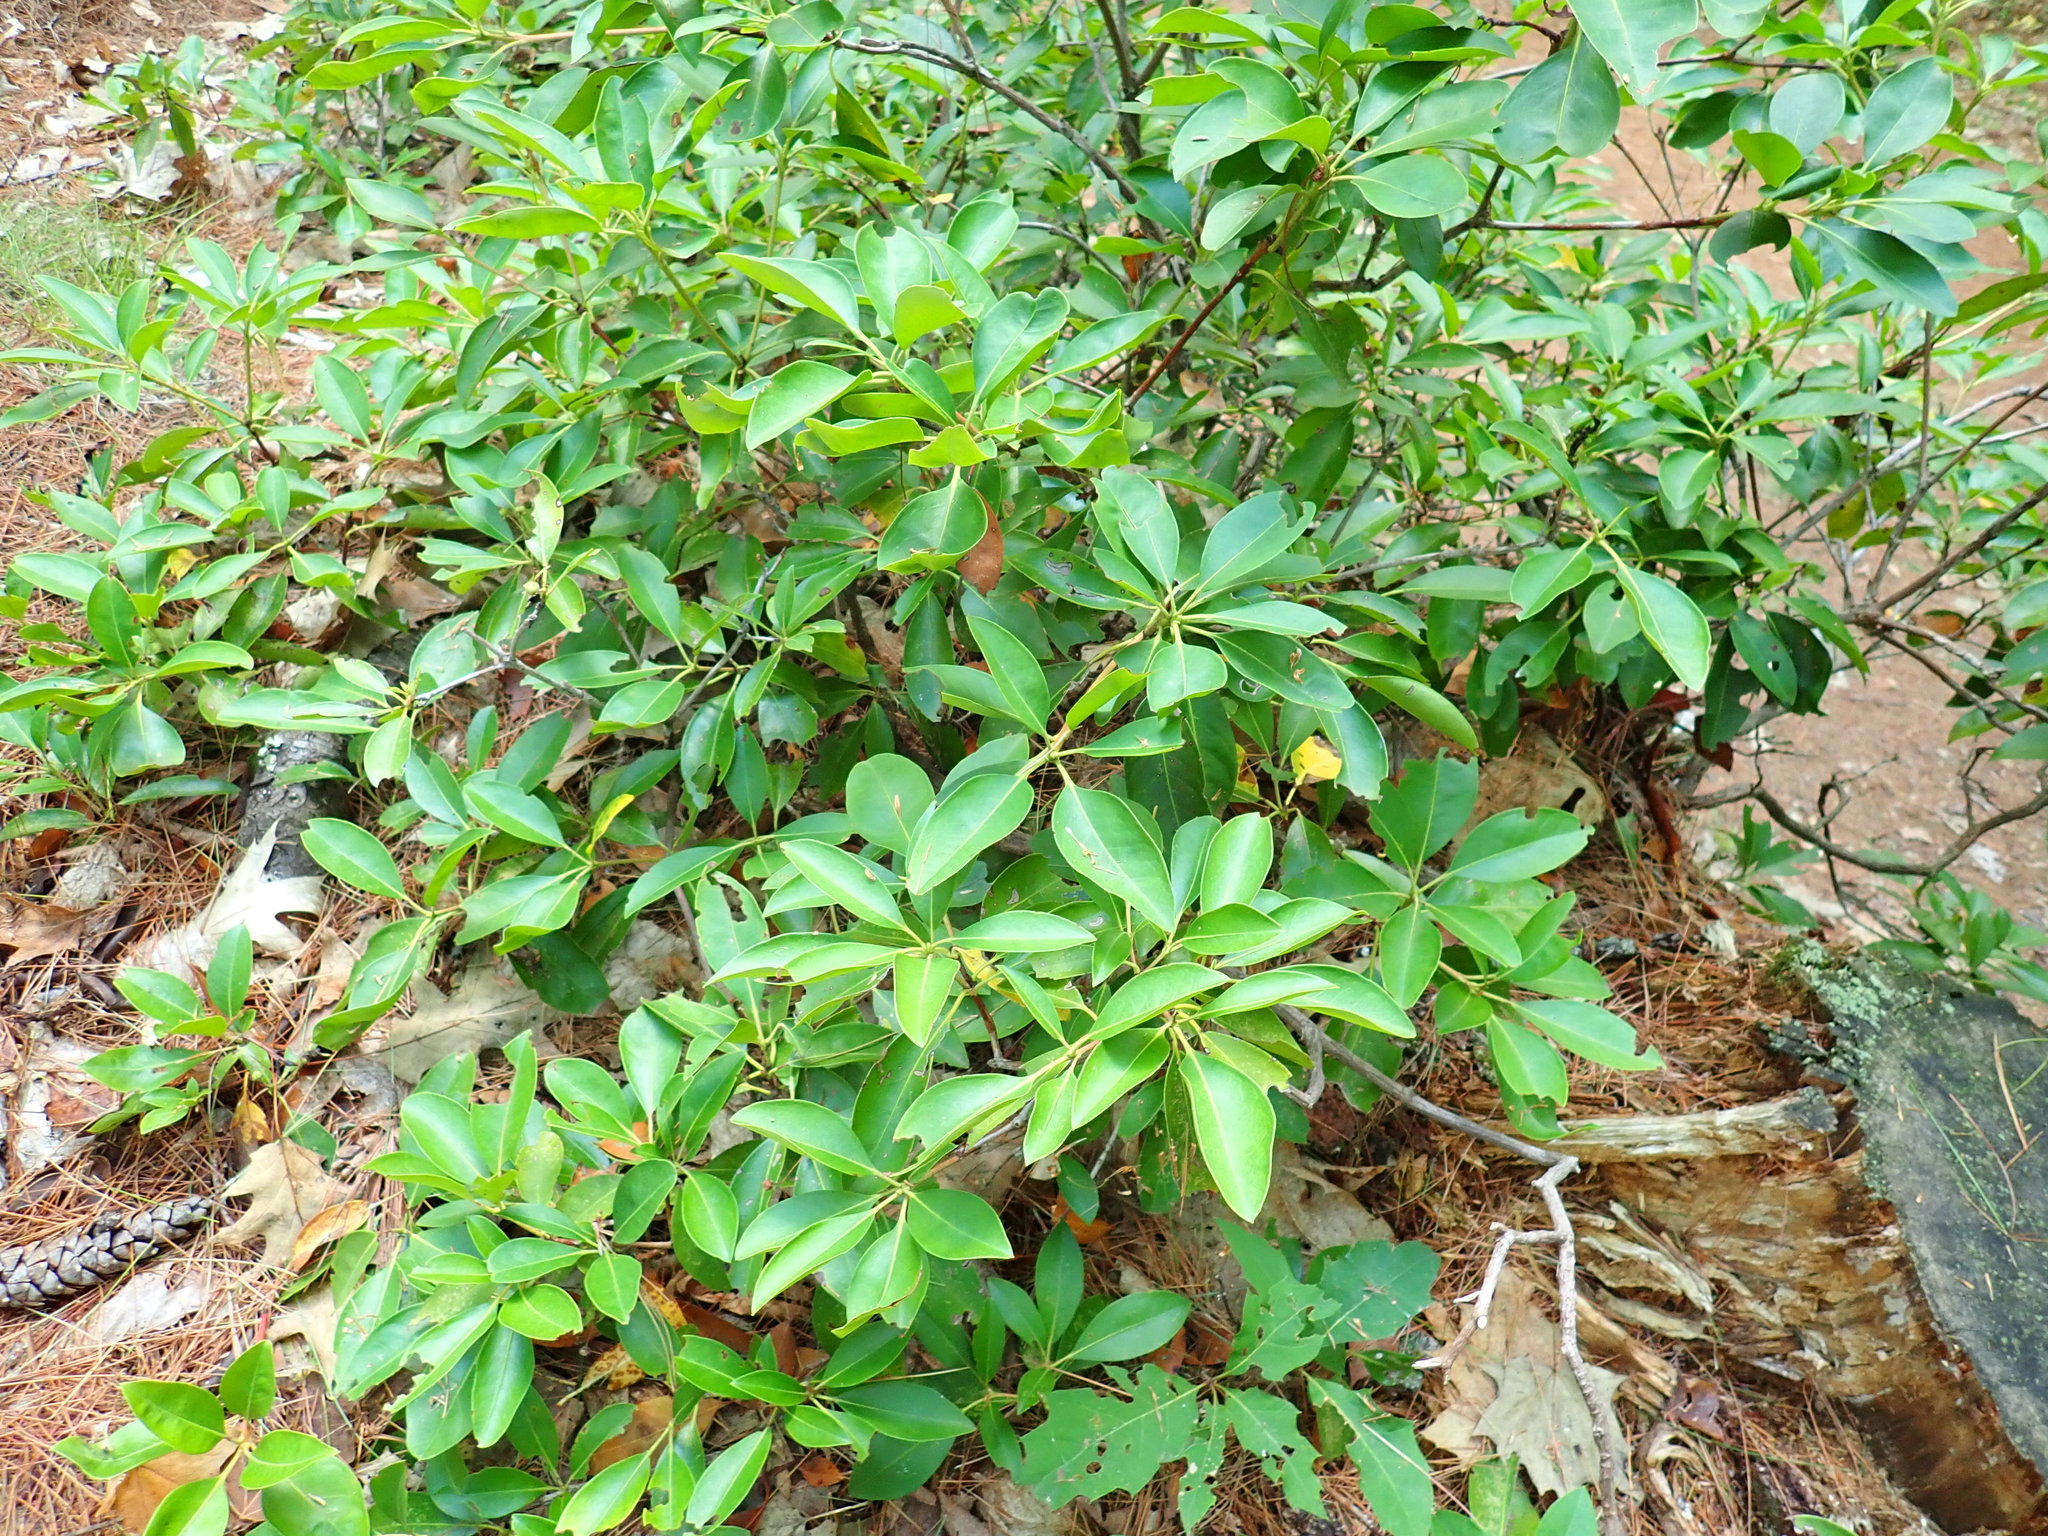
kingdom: Plantae
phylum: Tracheophyta
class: Magnoliopsida
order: Ericales
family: Ericaceae
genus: Kalmia
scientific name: Kalmia latifolia
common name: Mountain-laurel
